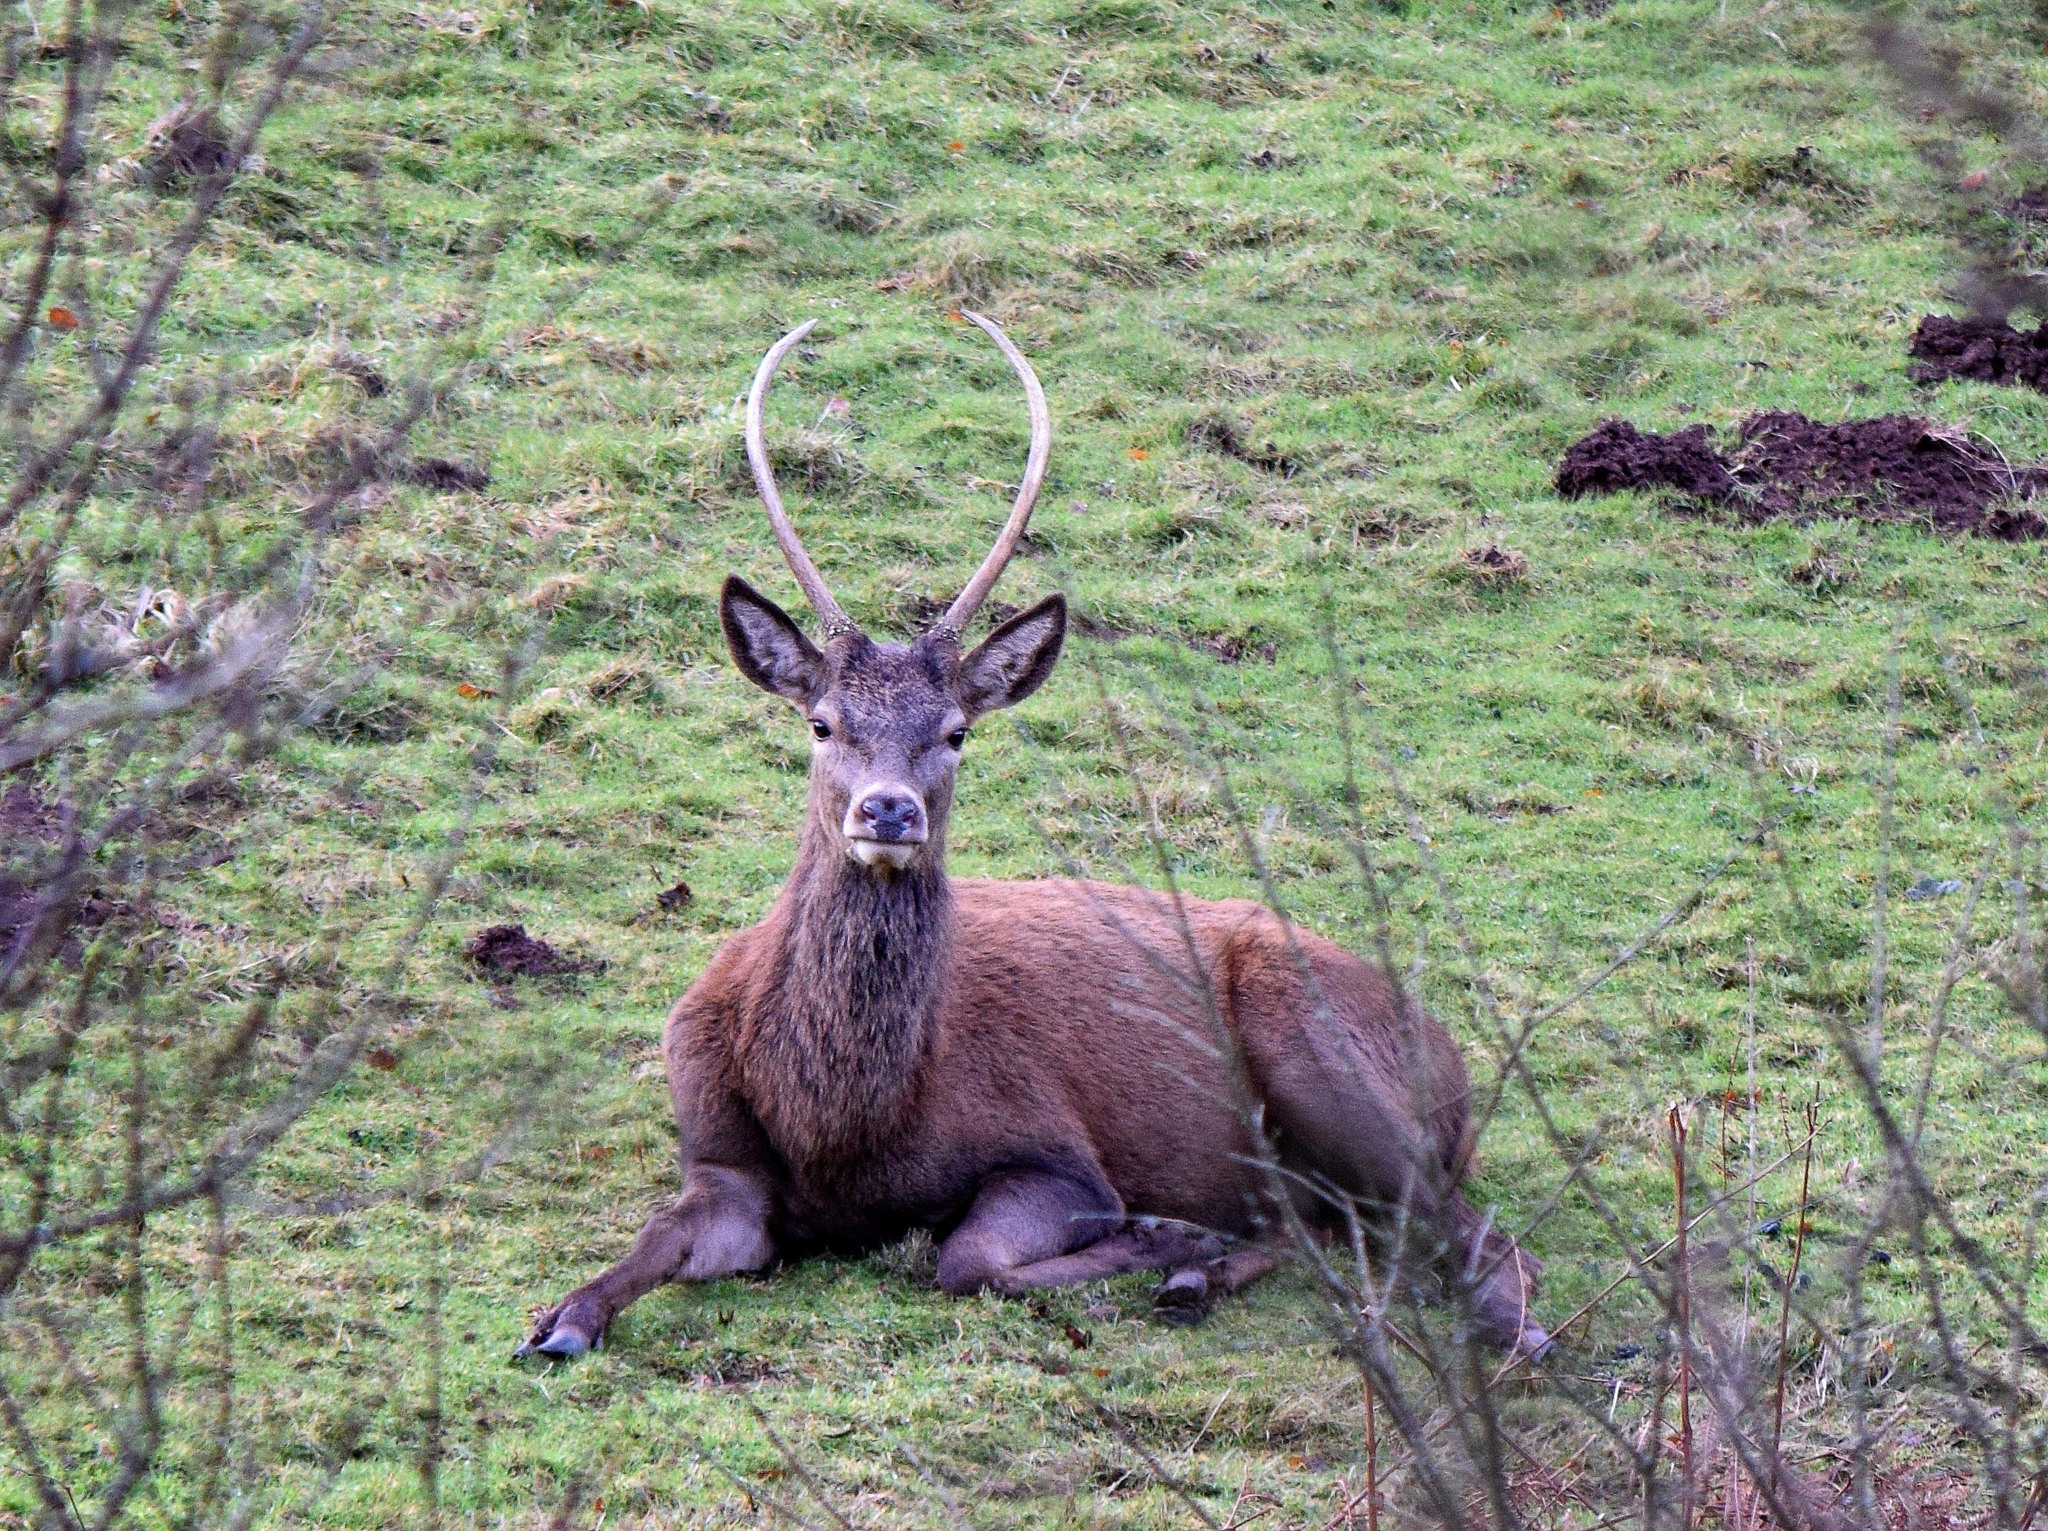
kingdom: Animalia
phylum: Chordata
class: Mammalia
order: Artiodactyla
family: Cervidae
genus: Cervus
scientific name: Cervus elaphus
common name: Red deer
